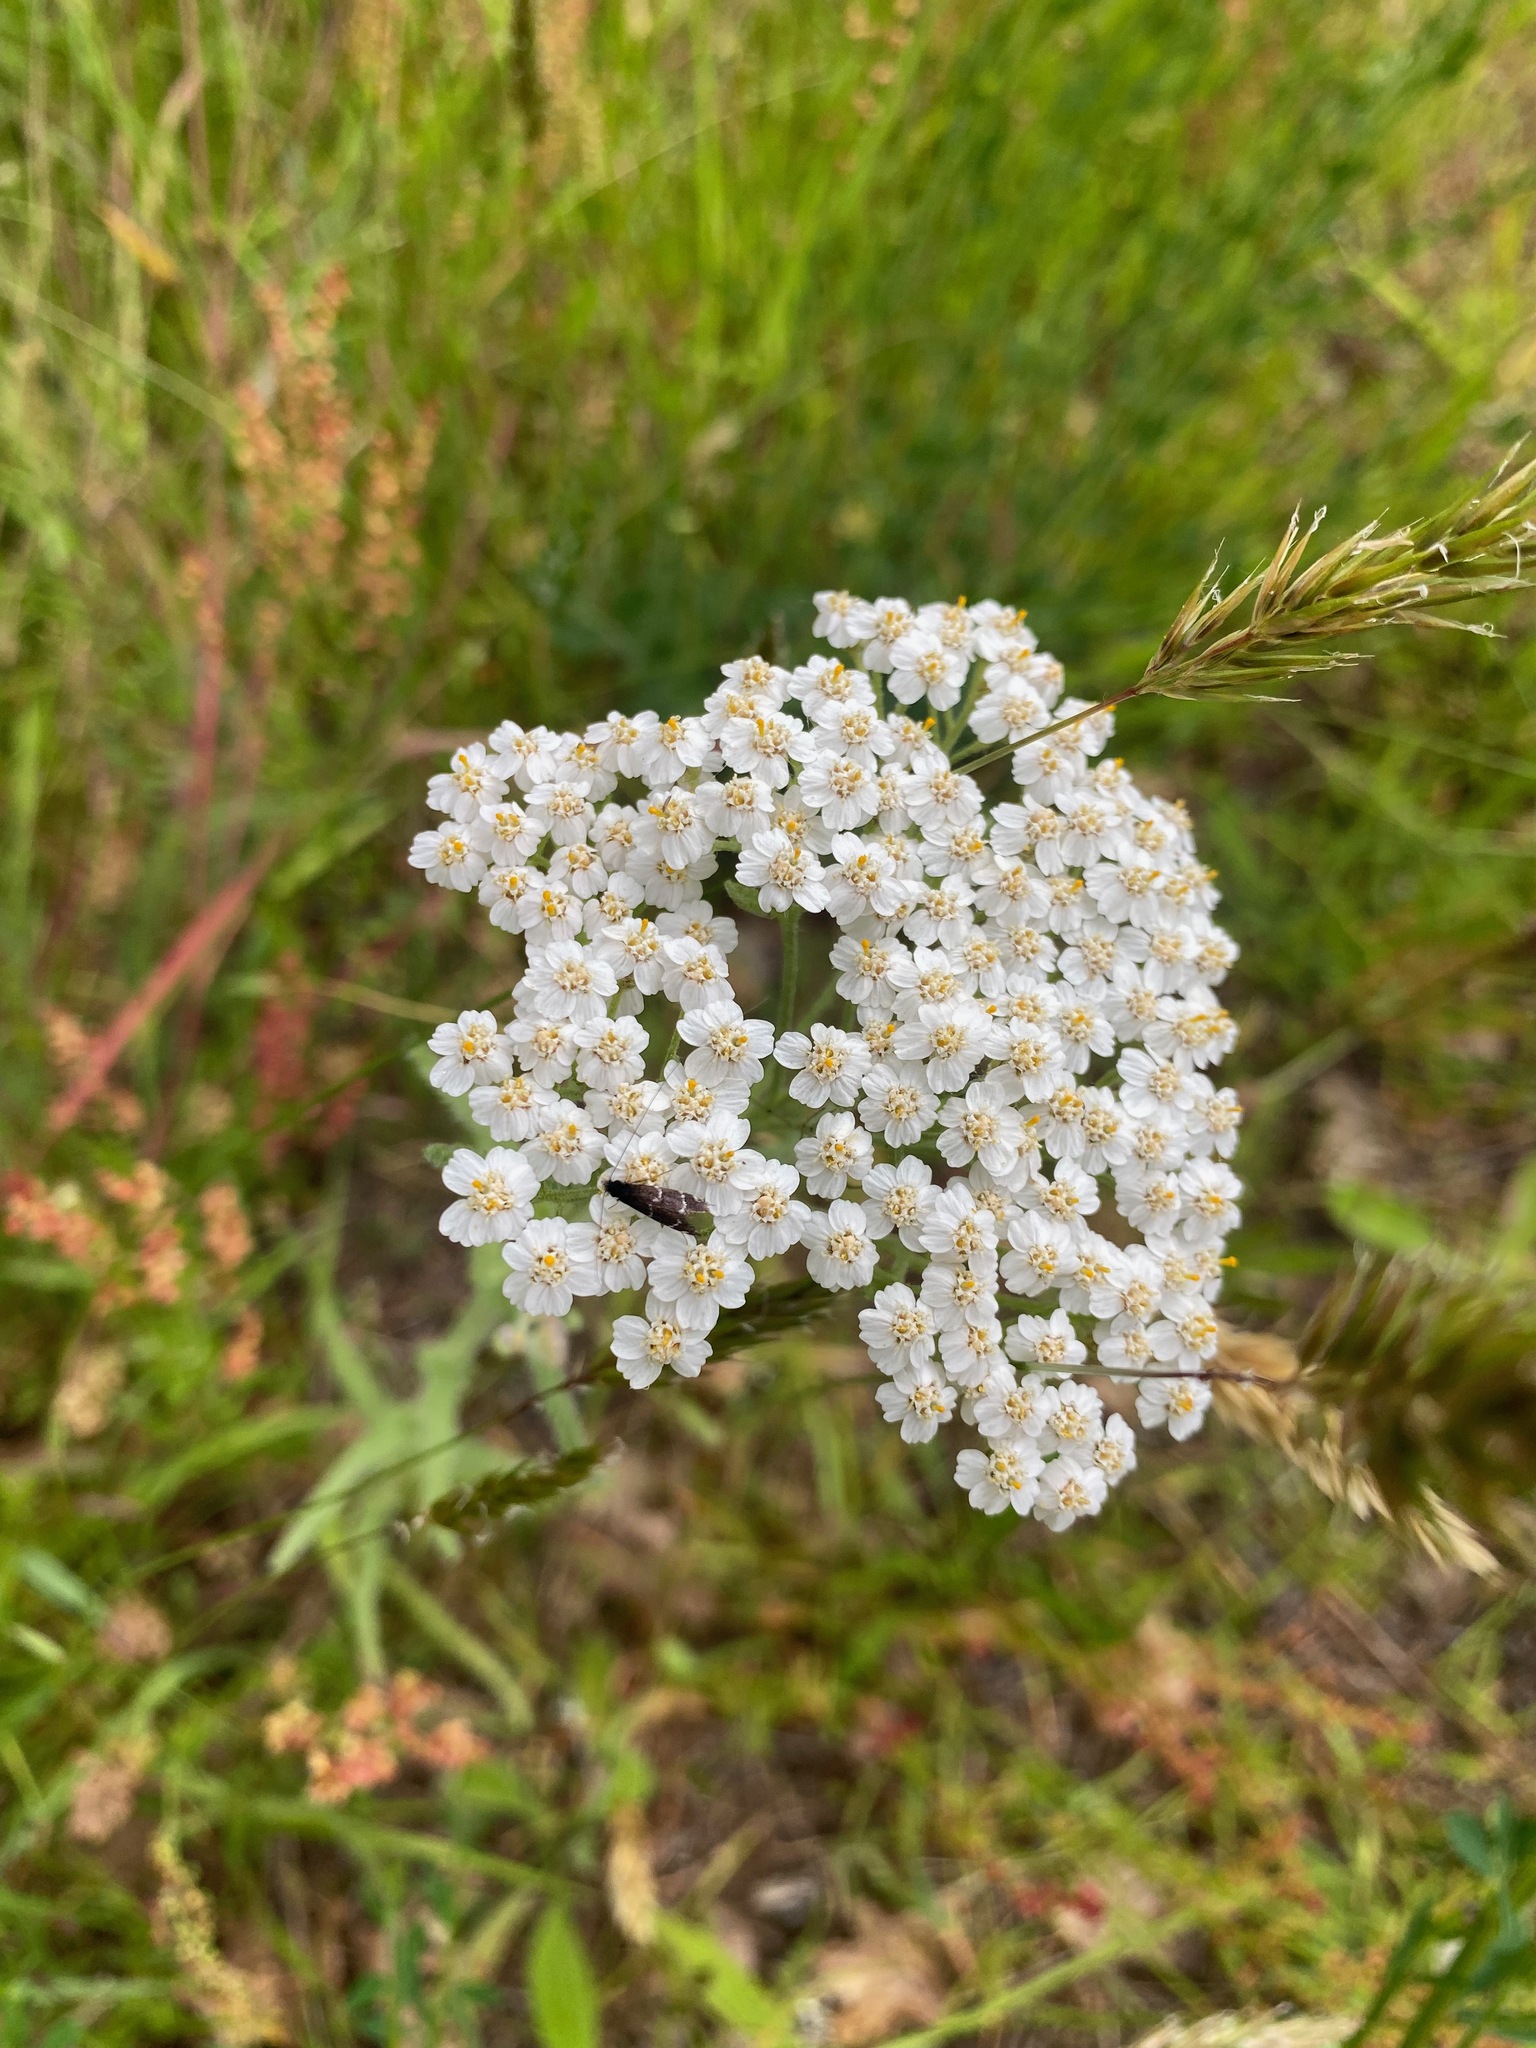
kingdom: Plantae
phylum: Tracheophyta
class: Magnoliopsida
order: Asterales
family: Asteraceae
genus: Achillea
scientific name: Achillea millefolium
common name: Yarrow
